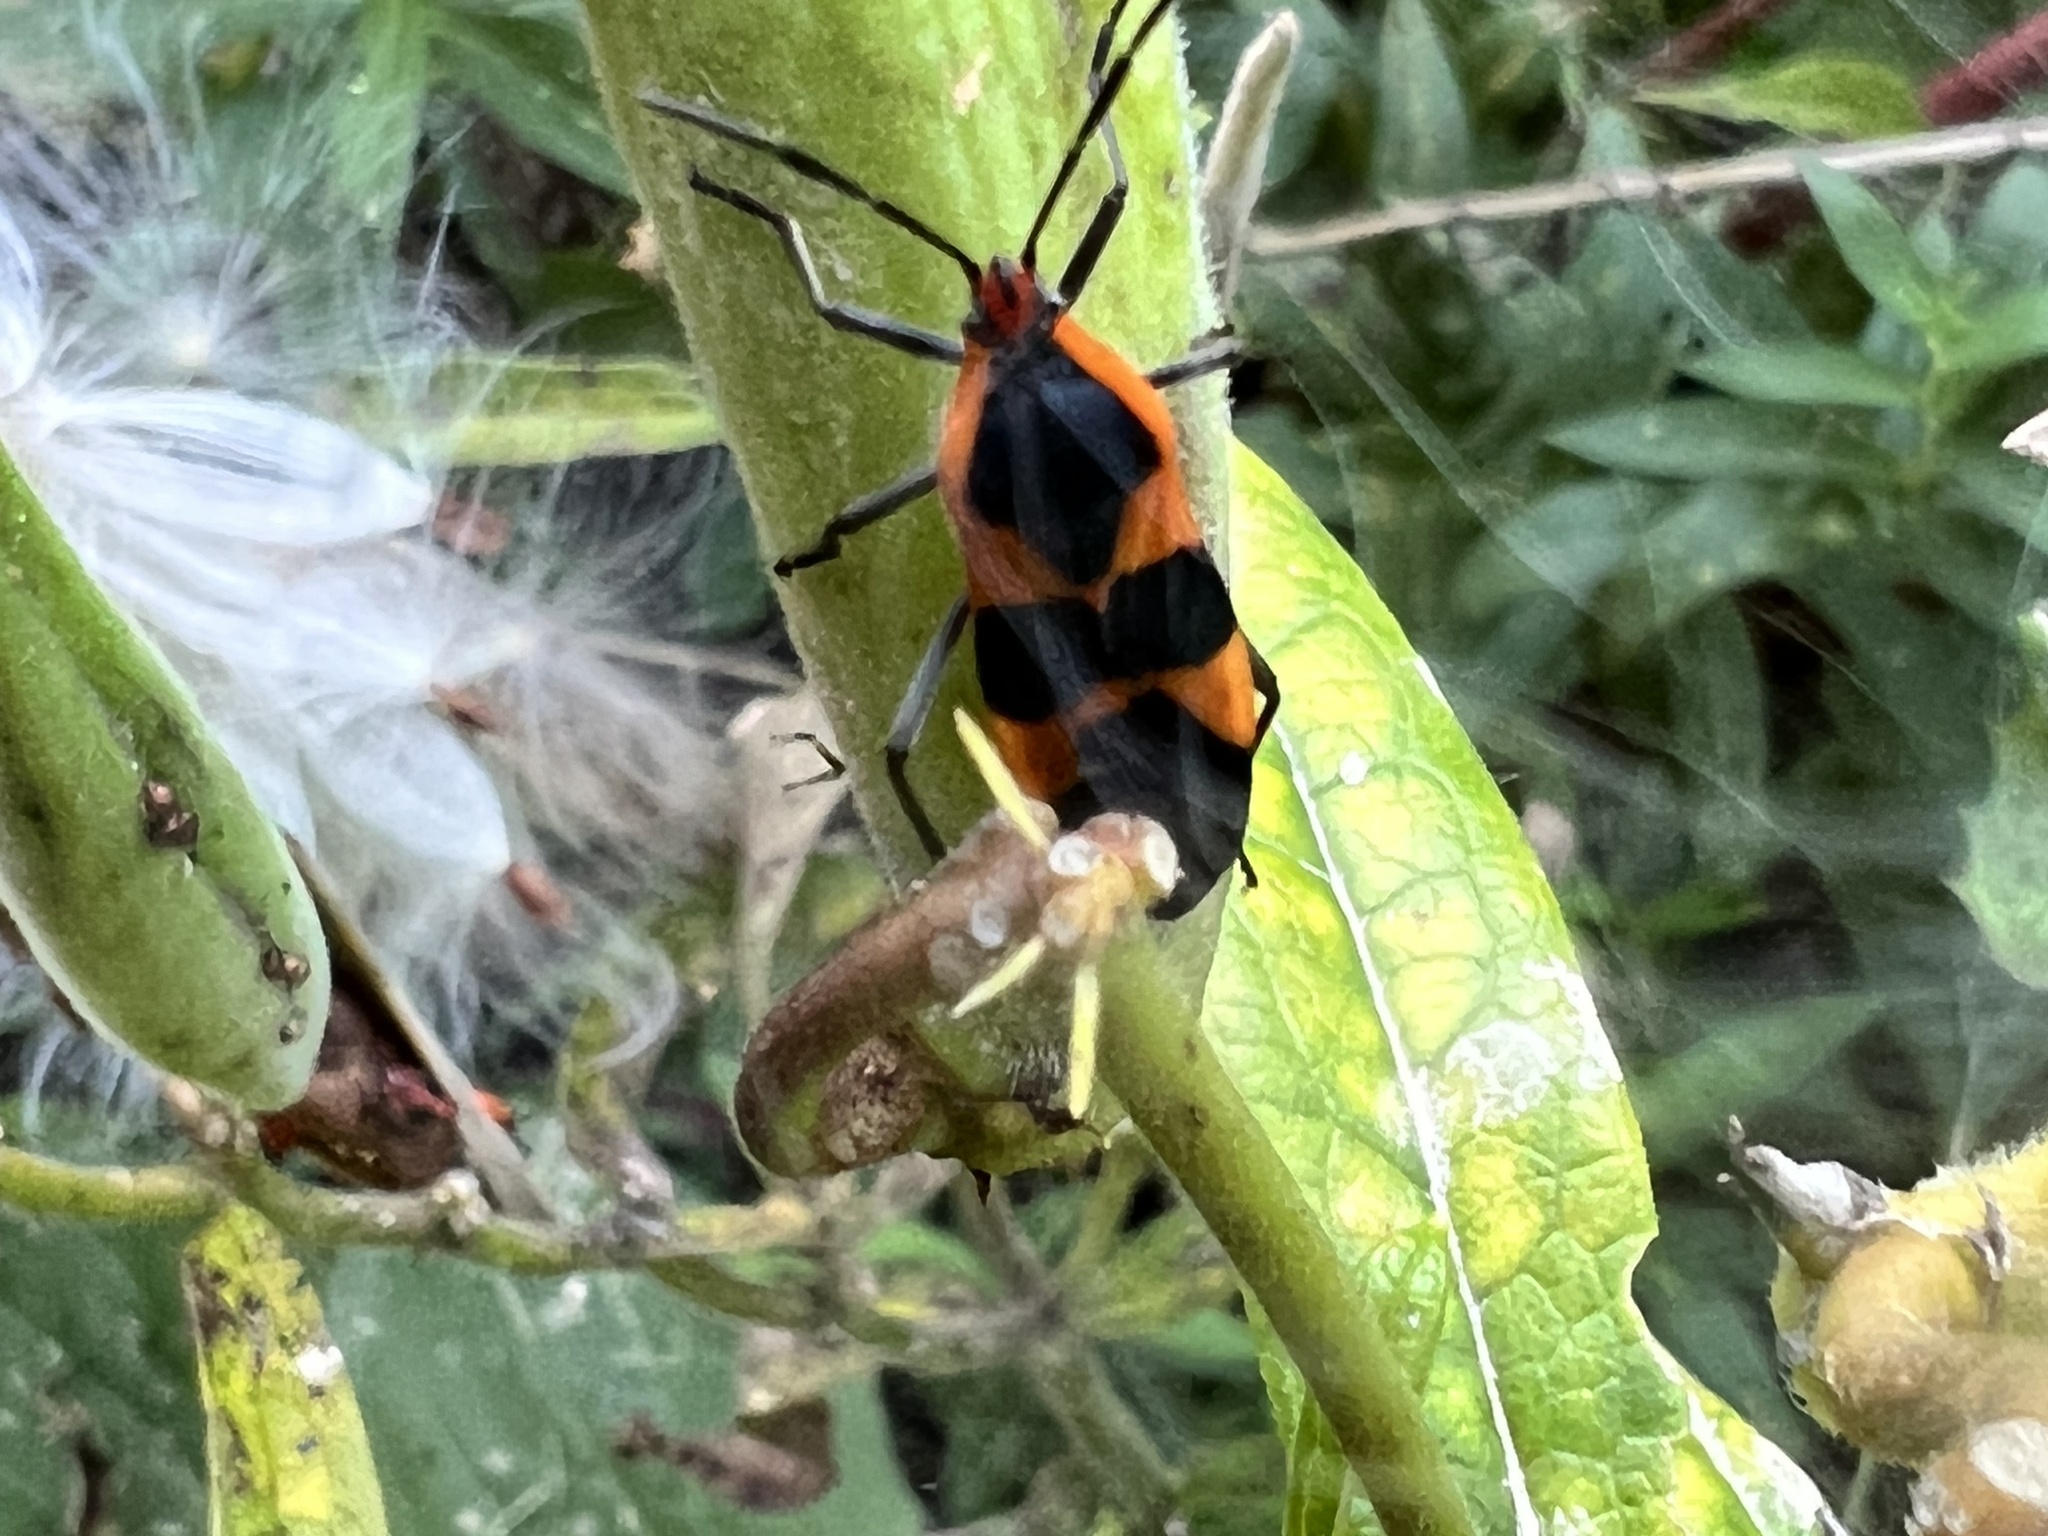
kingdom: Animalia
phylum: Arthropoda
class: Insecta
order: Hemiptera
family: Lygaeidae
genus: Oncopeltus
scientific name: Oncopeltus fasciatus
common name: Large milkweed bug
